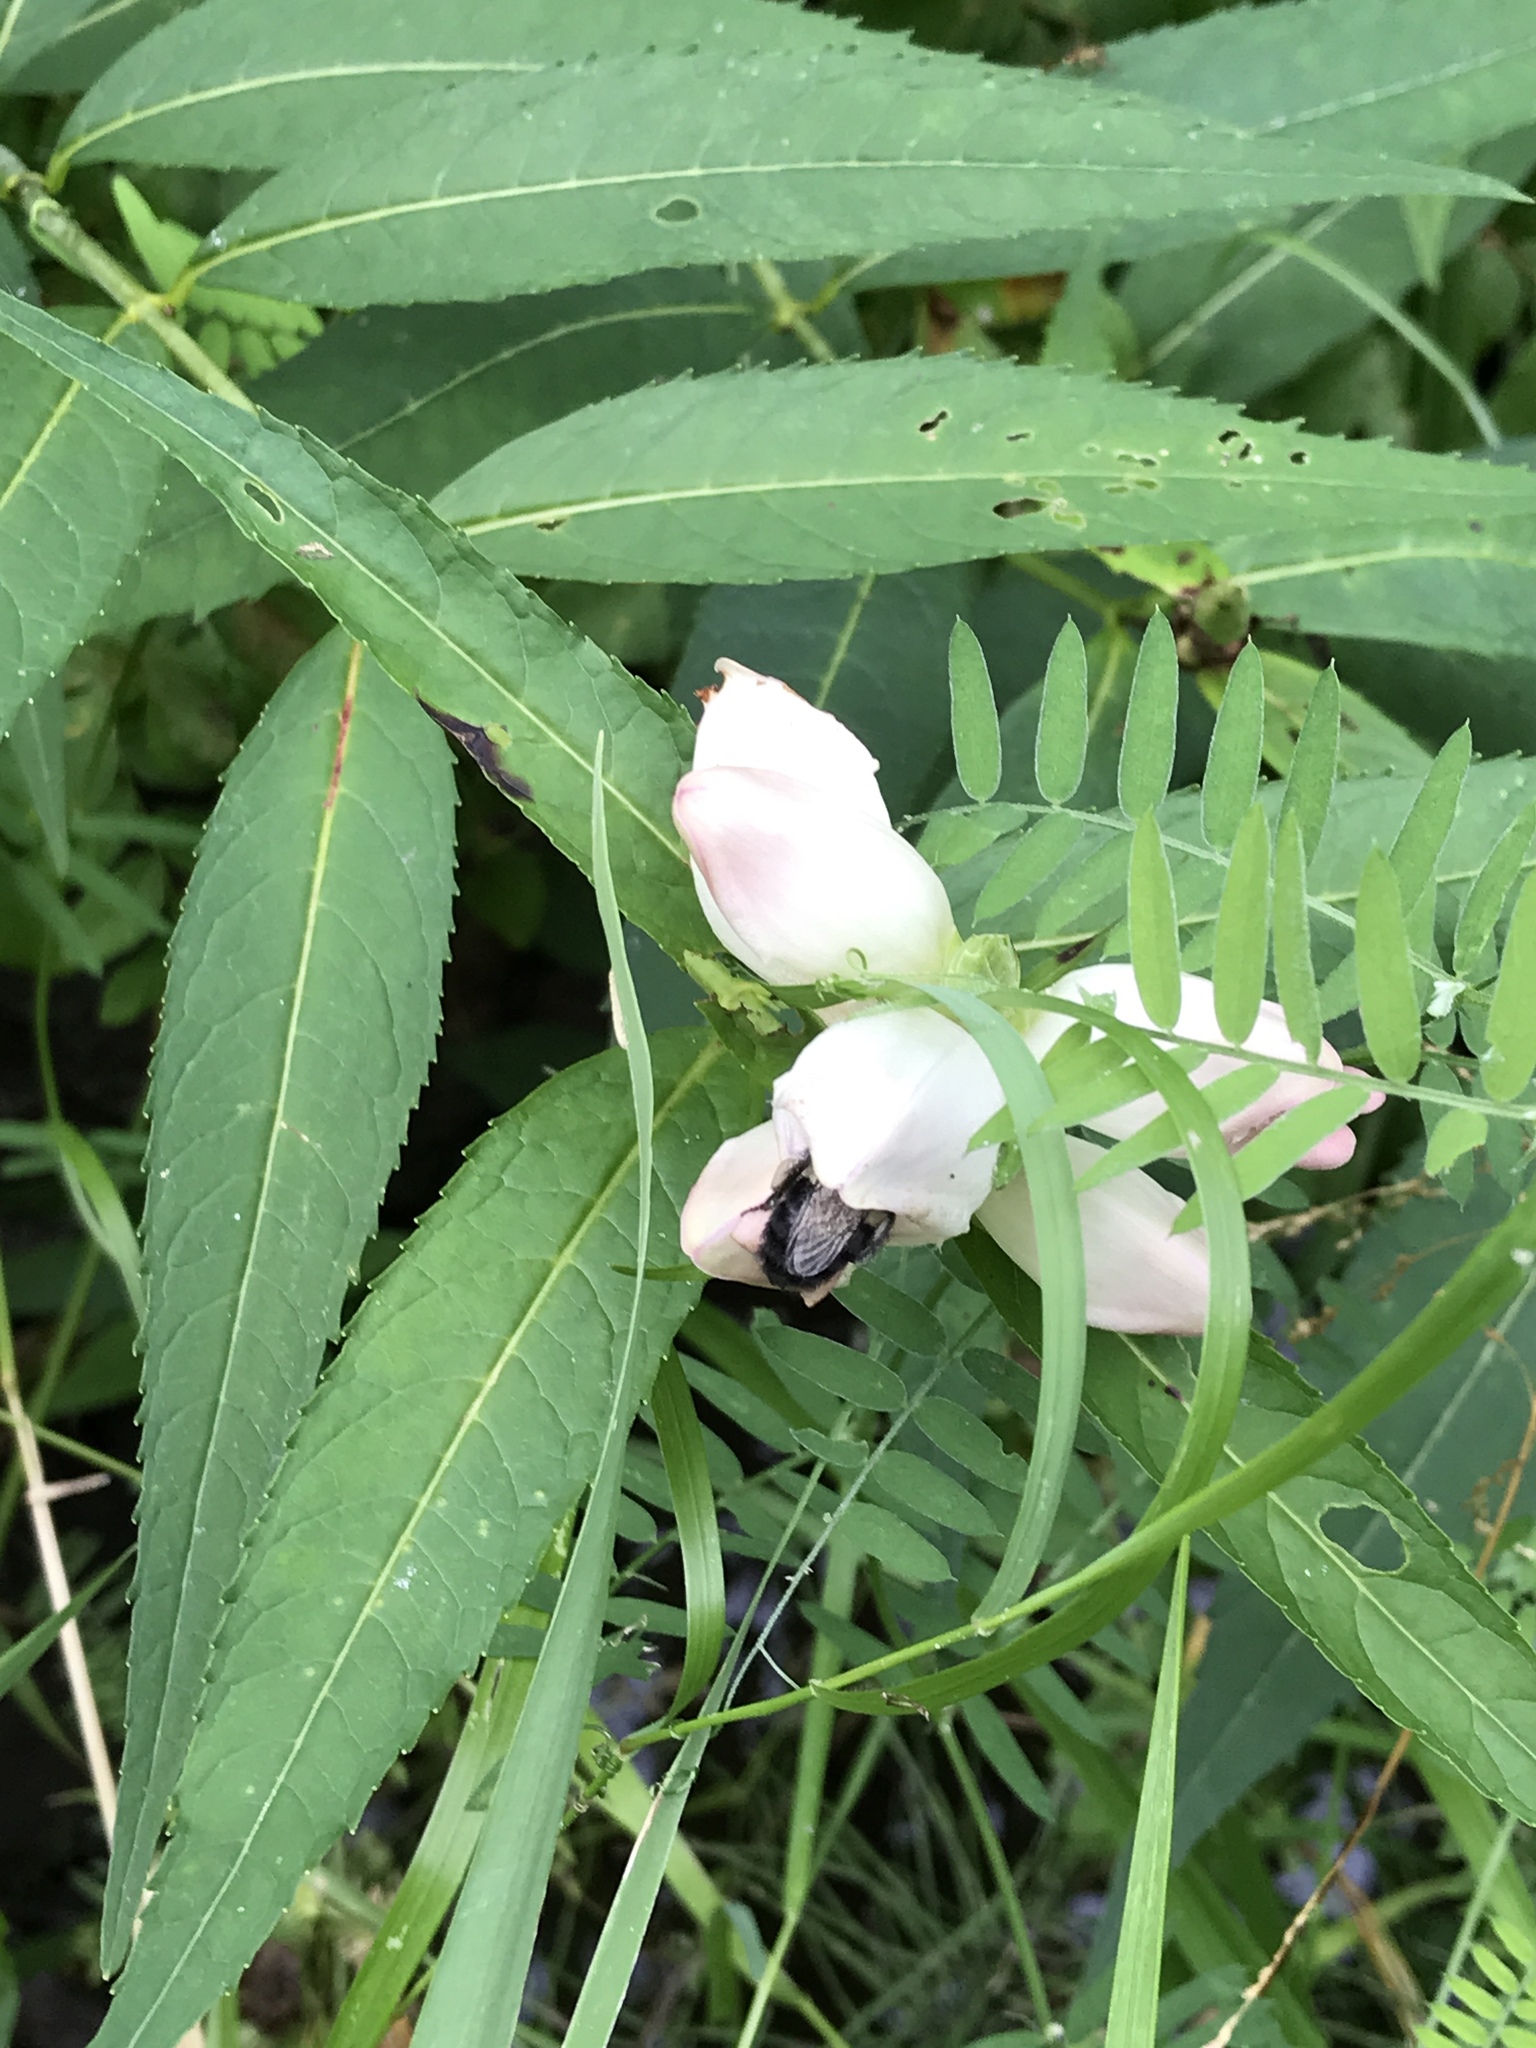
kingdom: Animalia
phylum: Arthropoda
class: Insecta
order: Hymenoptera
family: Apidae
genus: Bombus
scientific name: Bombus impatiens
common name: Common eastern bumble bee
